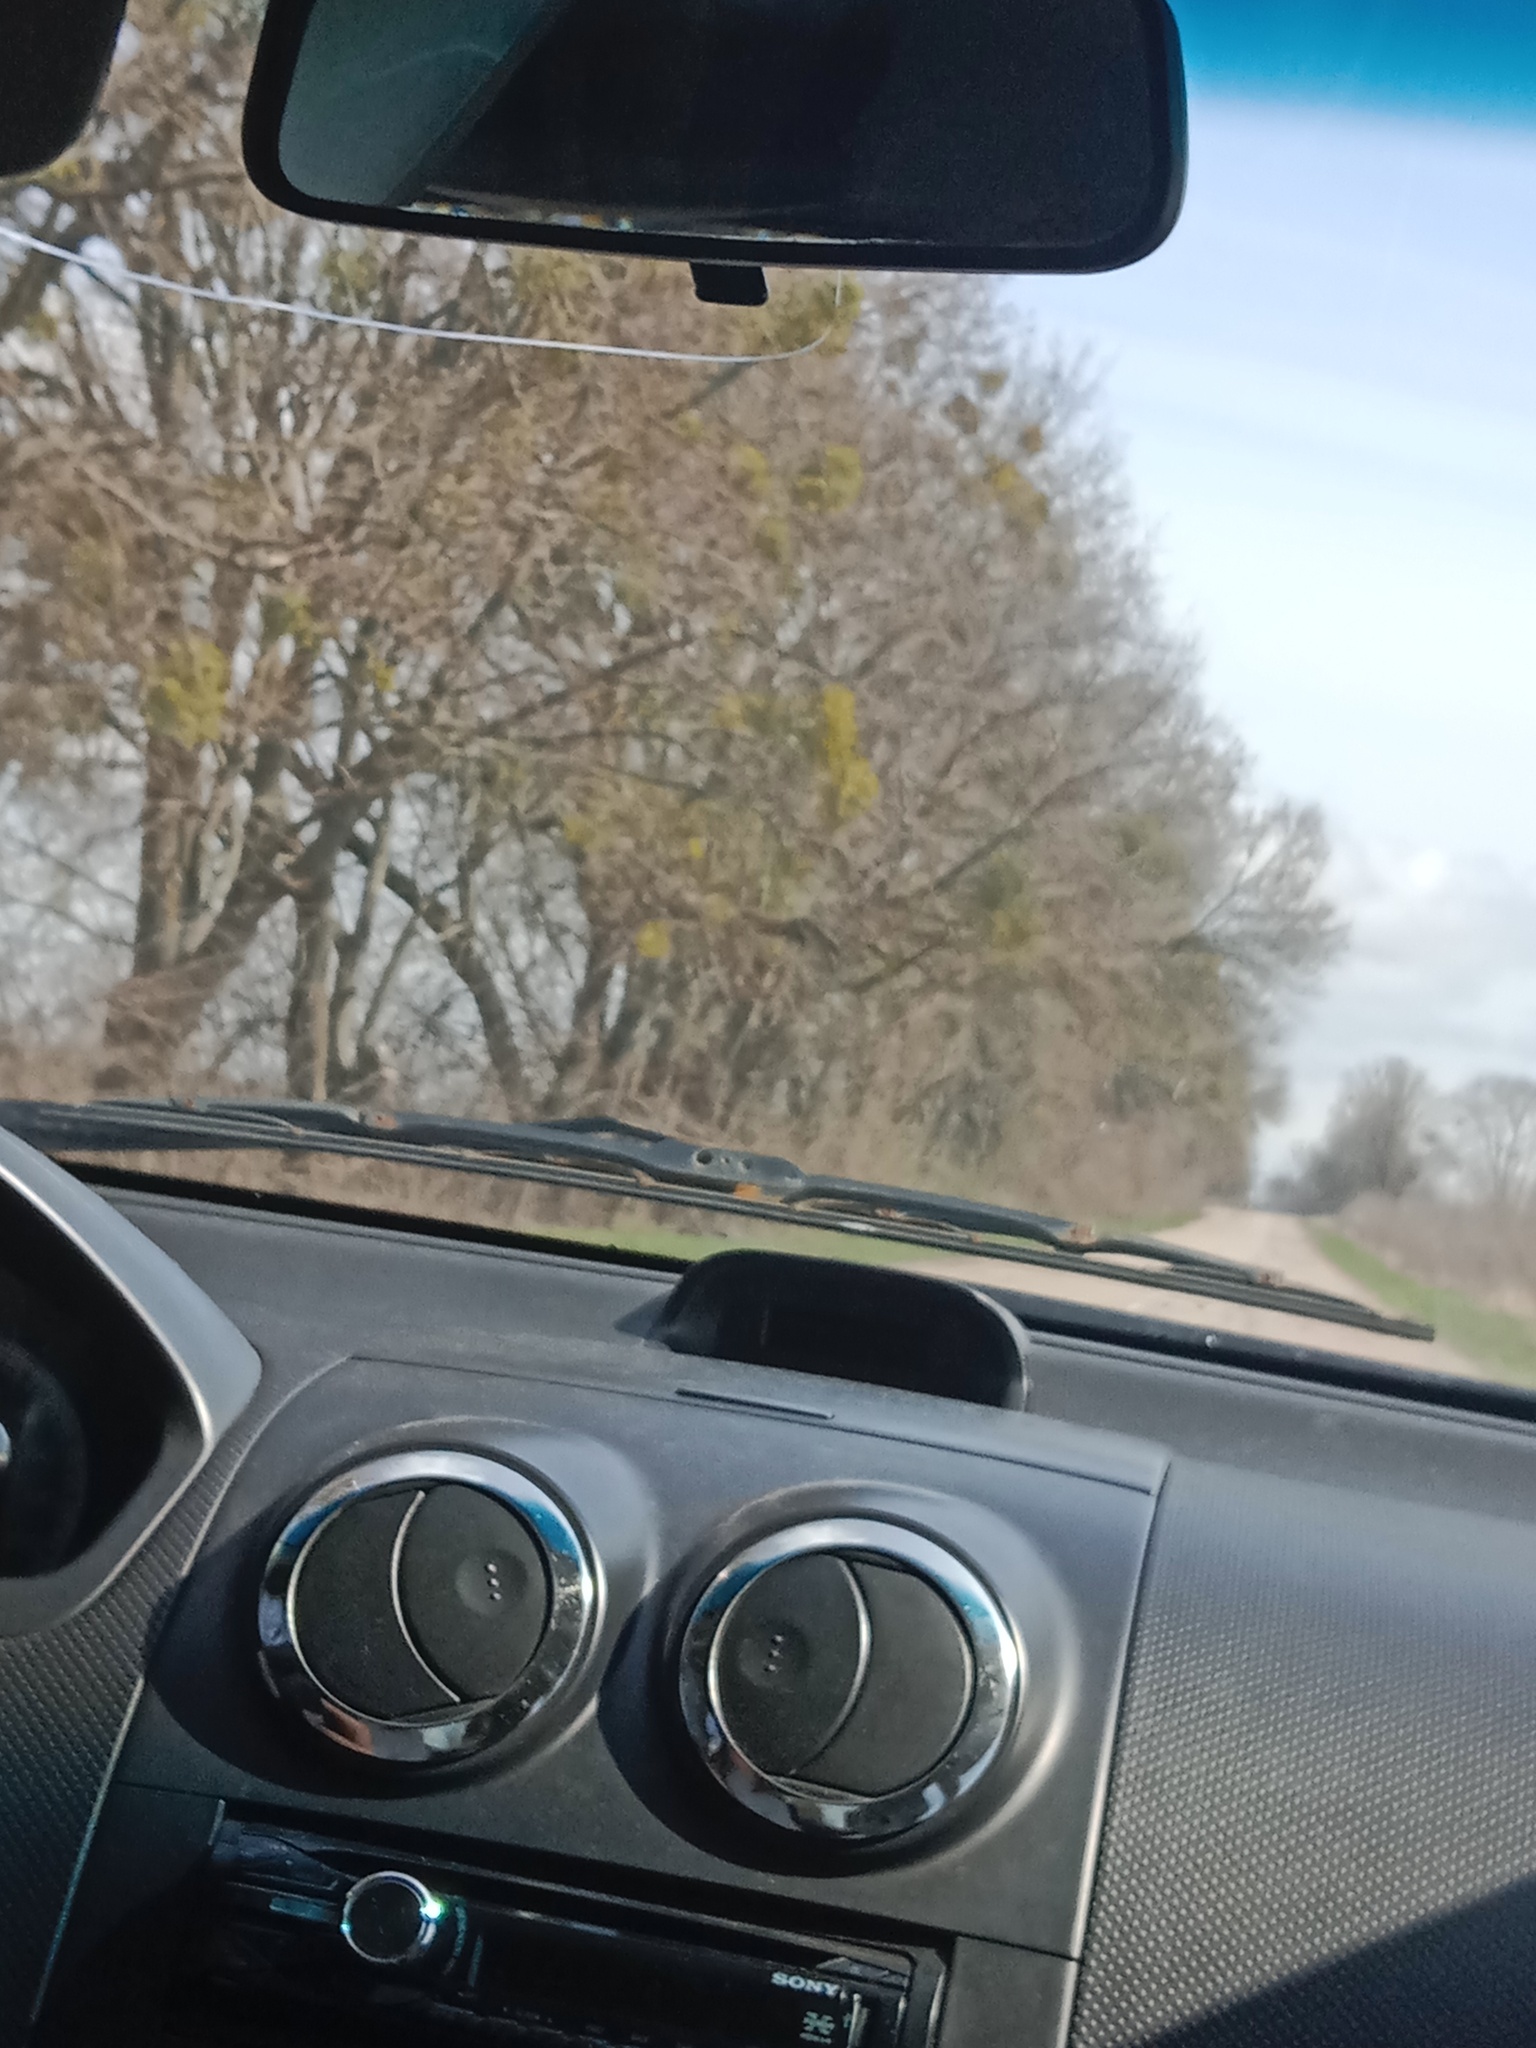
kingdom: Plantae
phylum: Tracheophyta
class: Magnoliopsida
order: Santalales
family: Viscaceae
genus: Viscum
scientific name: Viscum album
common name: Mistletoe
